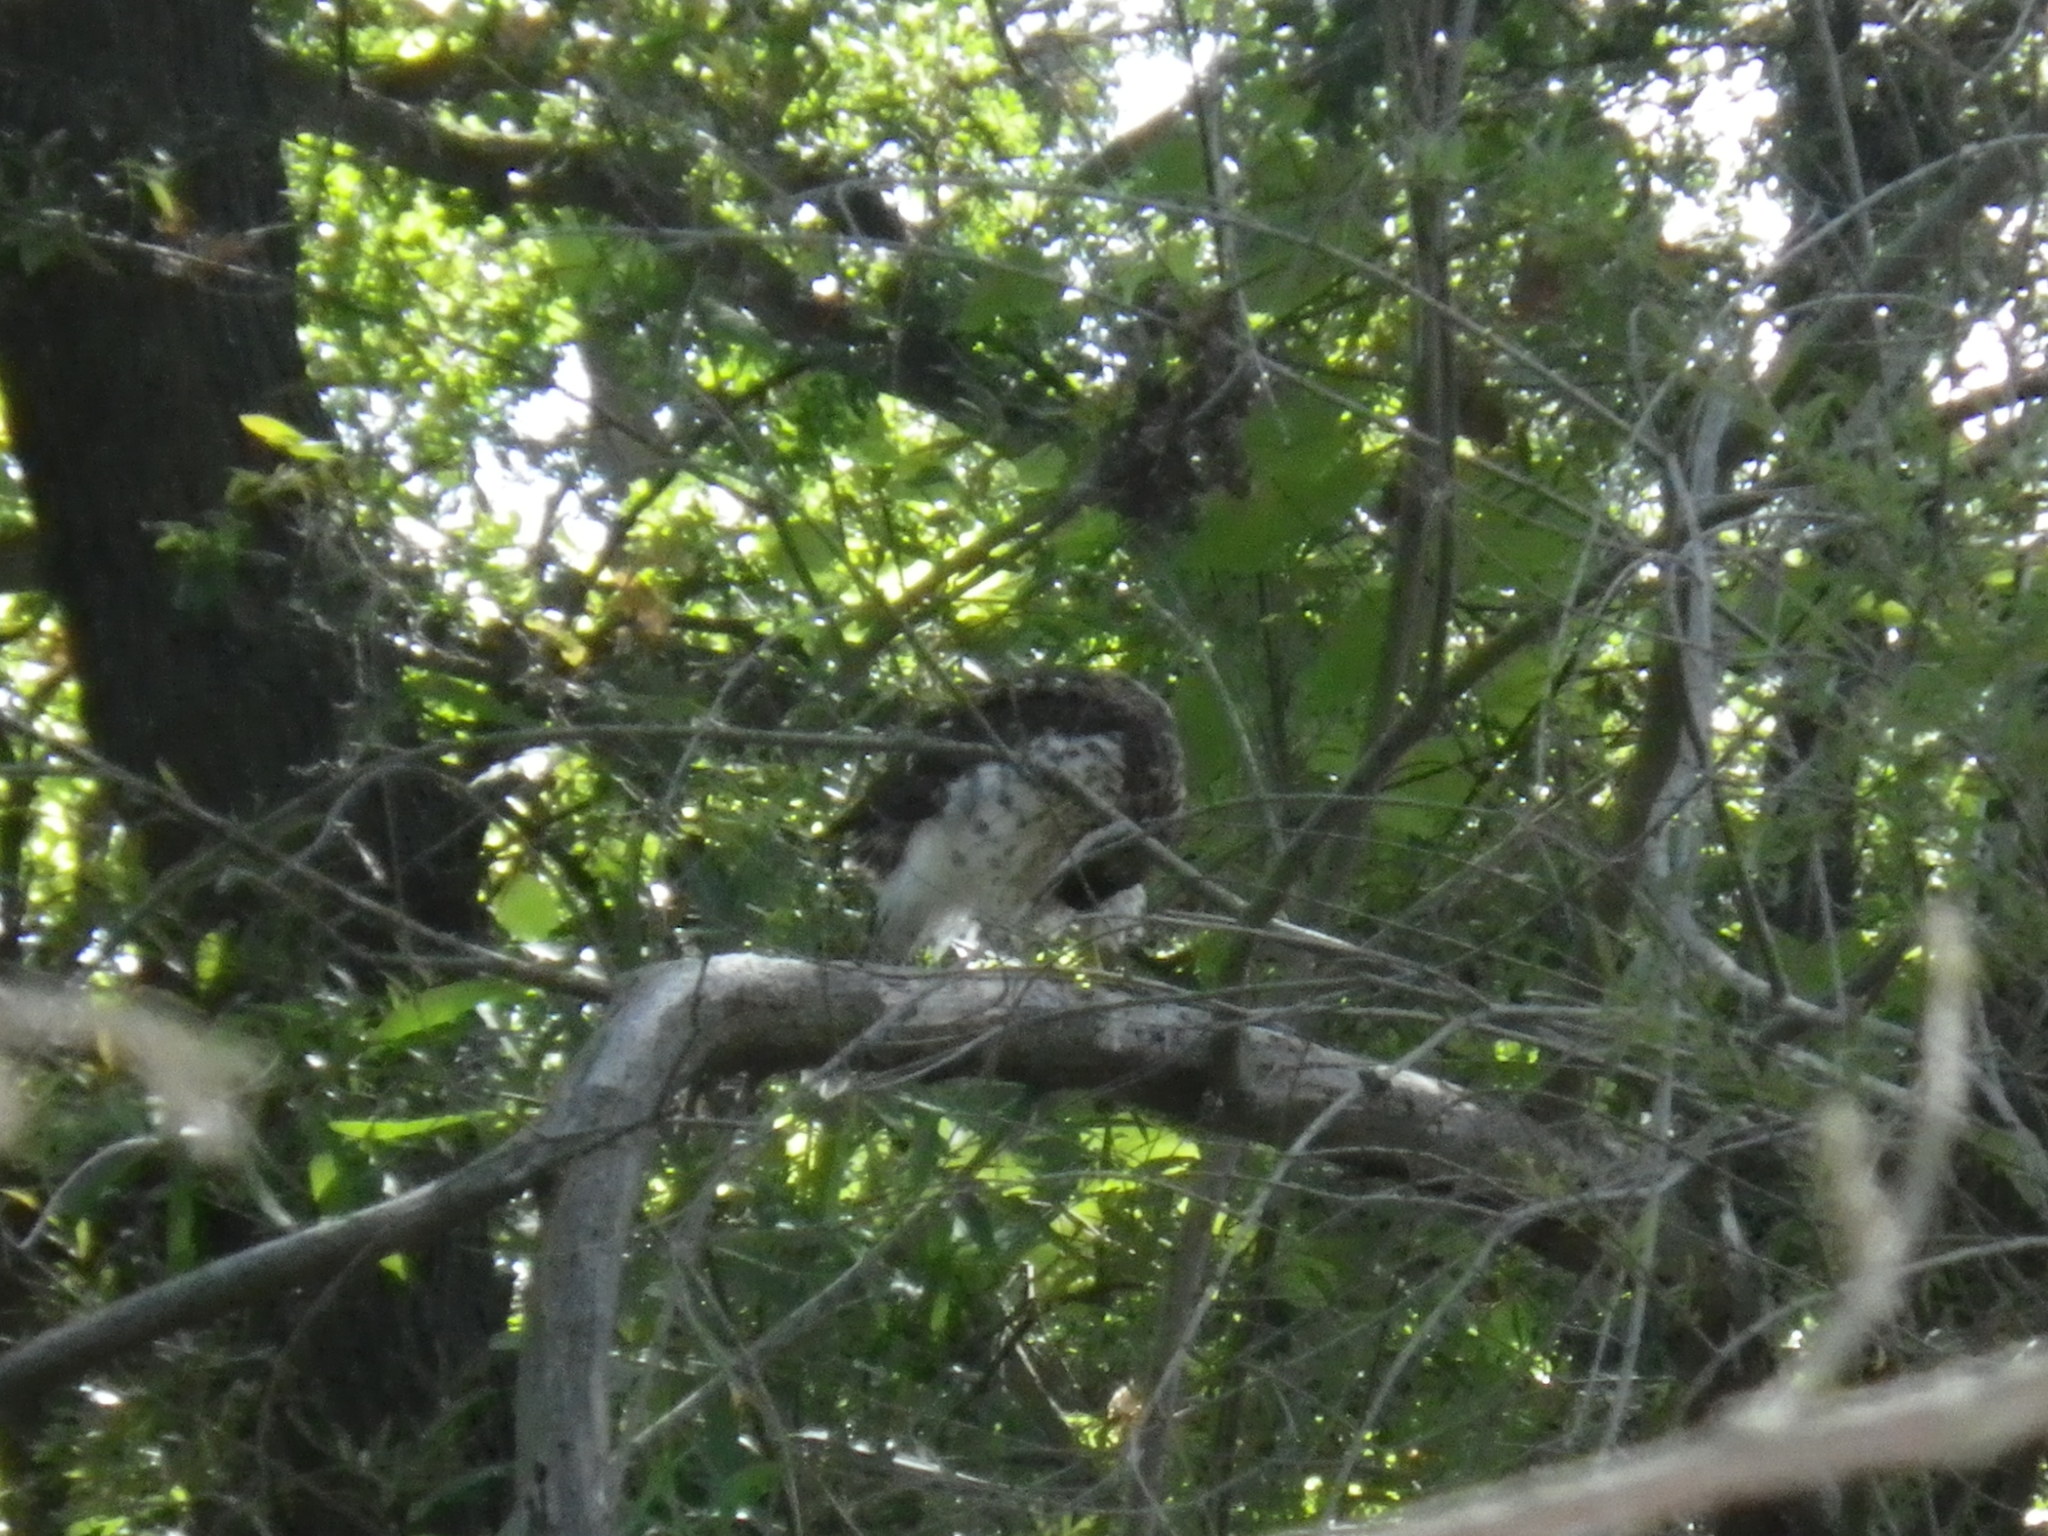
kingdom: Animalia
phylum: Chordata
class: Aves
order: Accipitriformes
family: Accipitridae
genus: Accipiter
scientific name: Accipiter cooperii
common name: Cooper's hawk
